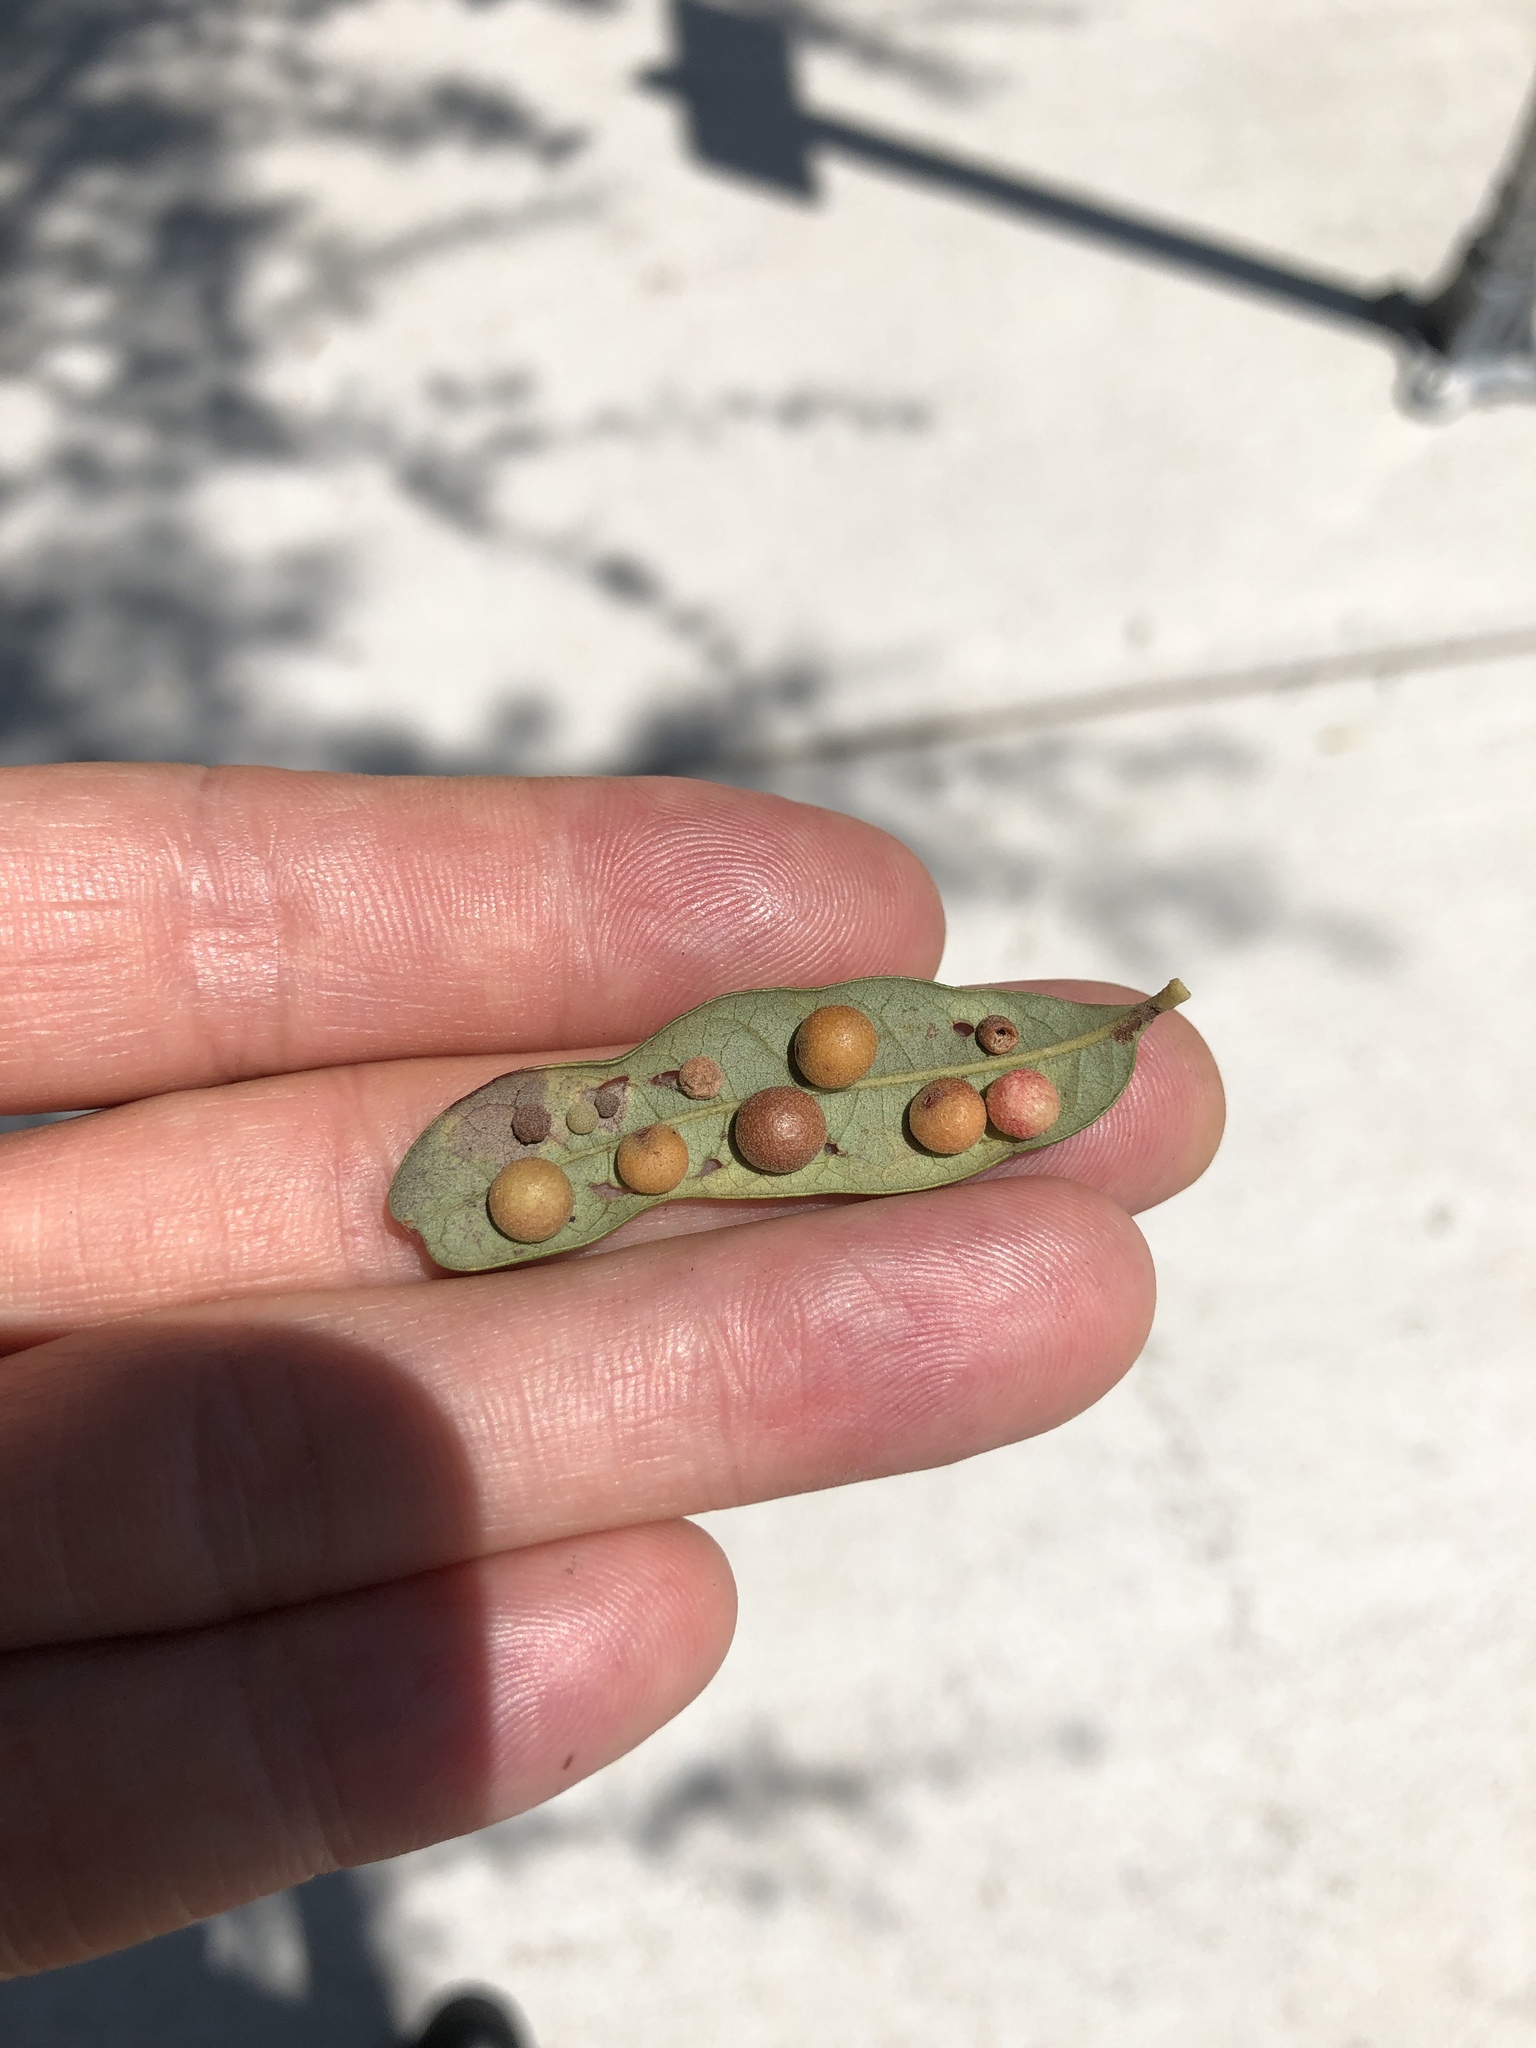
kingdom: Animalia
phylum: Arthropoda
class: Insecta
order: Hymenoptera
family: Cynipidae
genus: Belonocnema
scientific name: Belonocnema kinseyi
